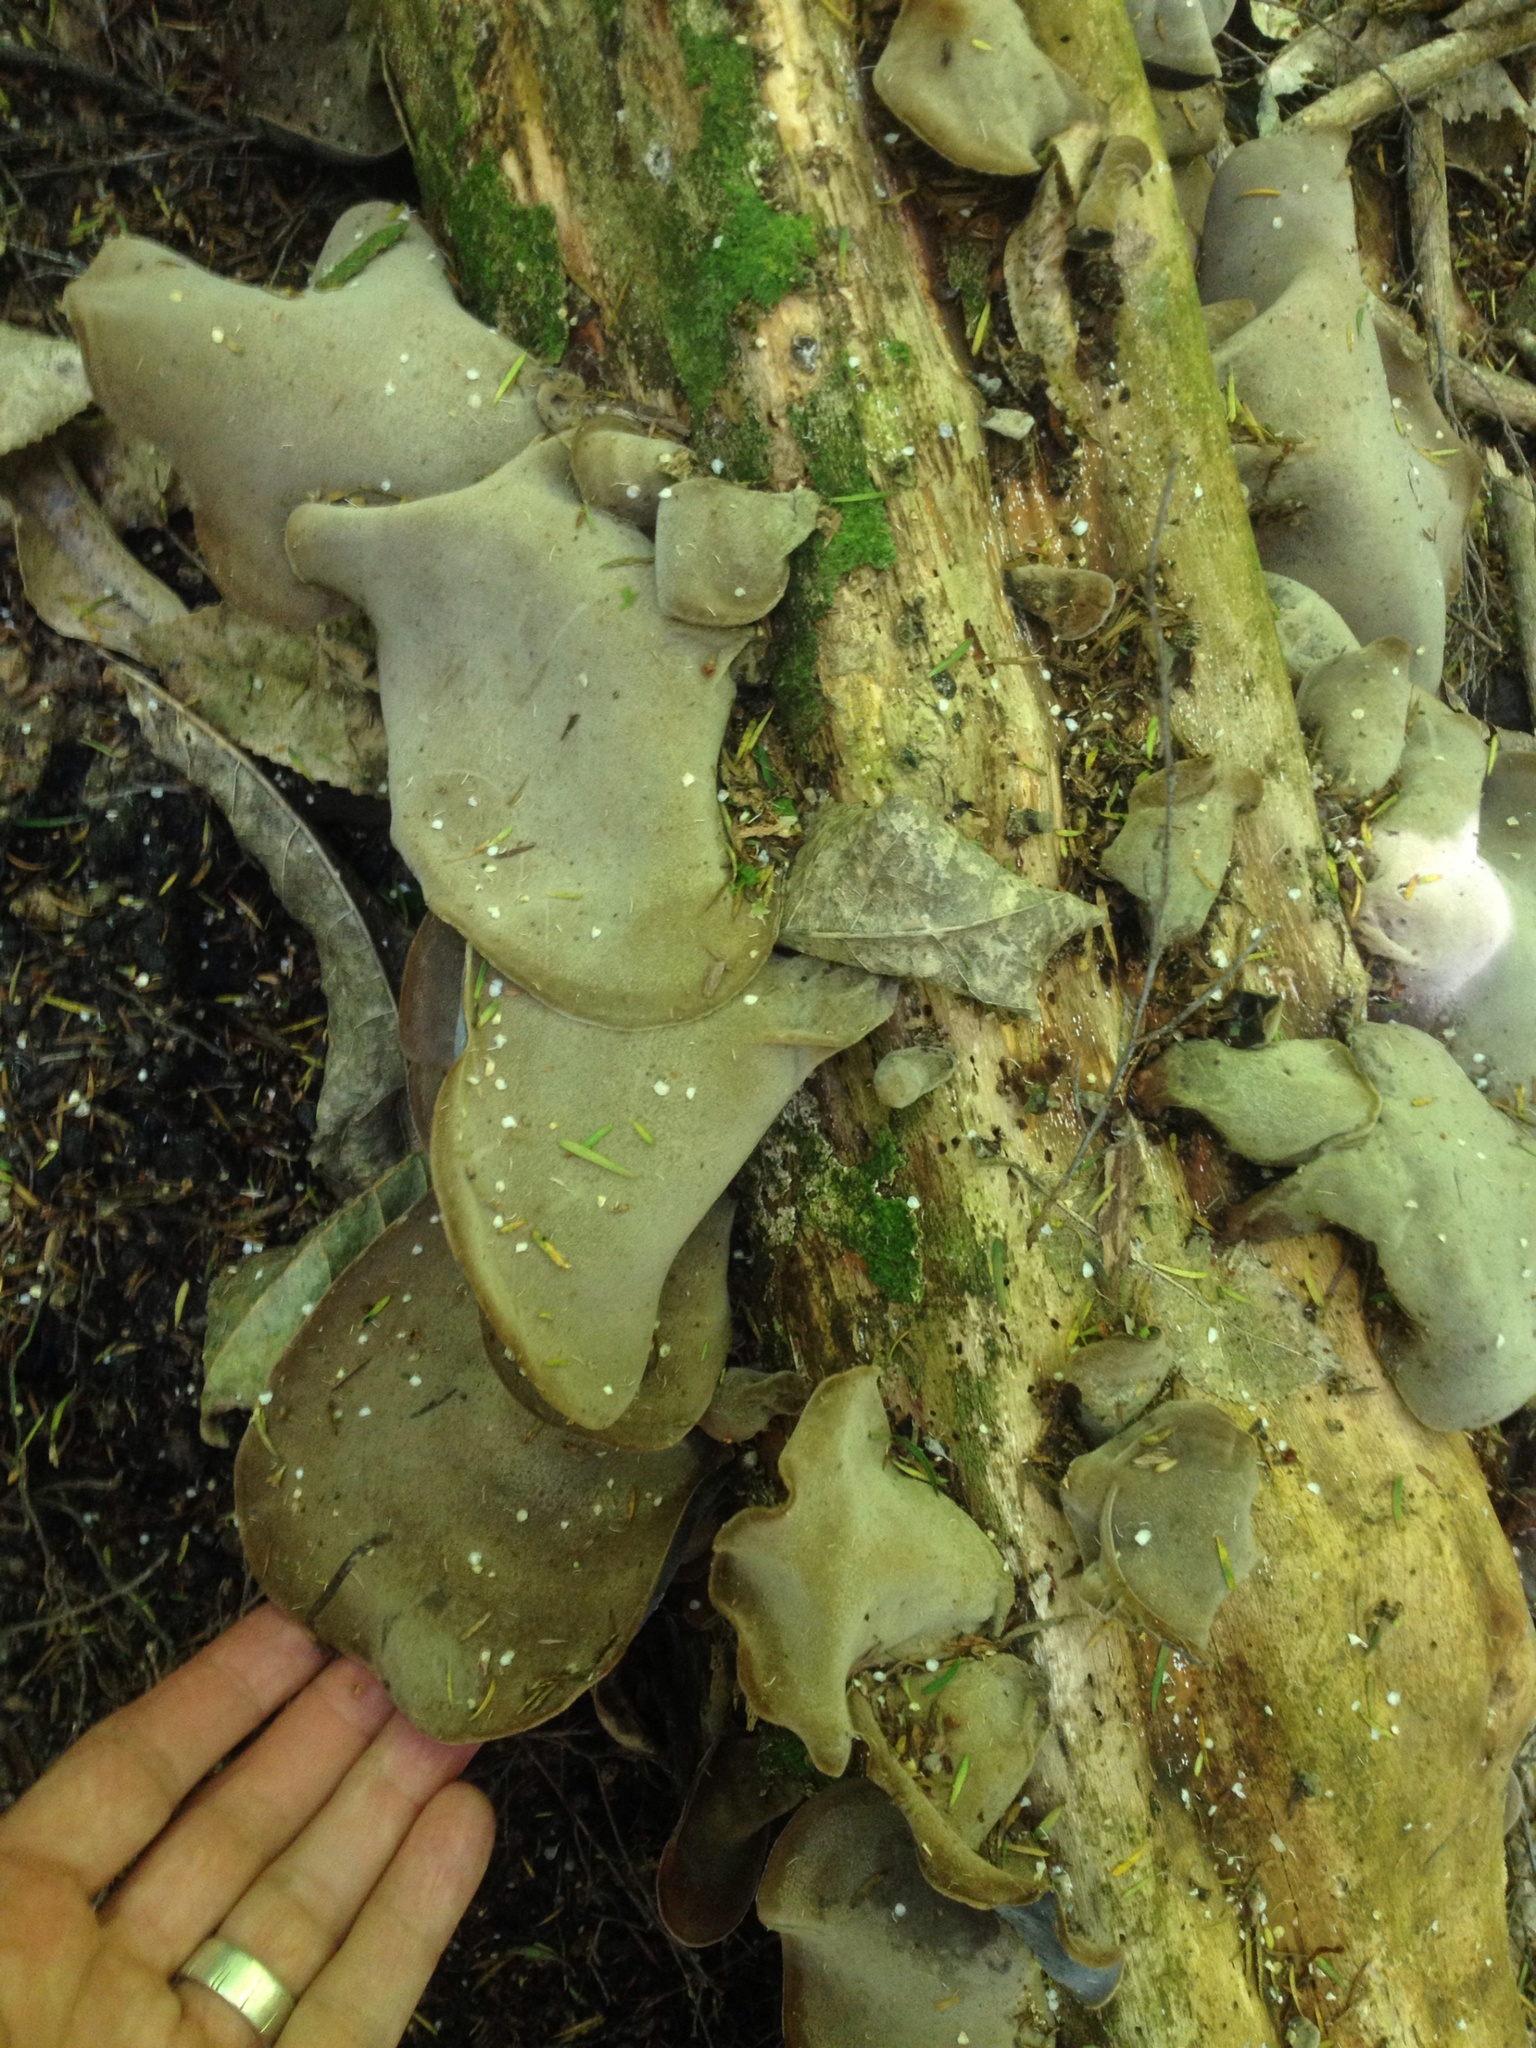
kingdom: Fungi
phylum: Basidiomycota
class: Agaricomycetes
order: Auriculariales
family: Auriculariaceae
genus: Auricularia
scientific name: Auricularia cornea
